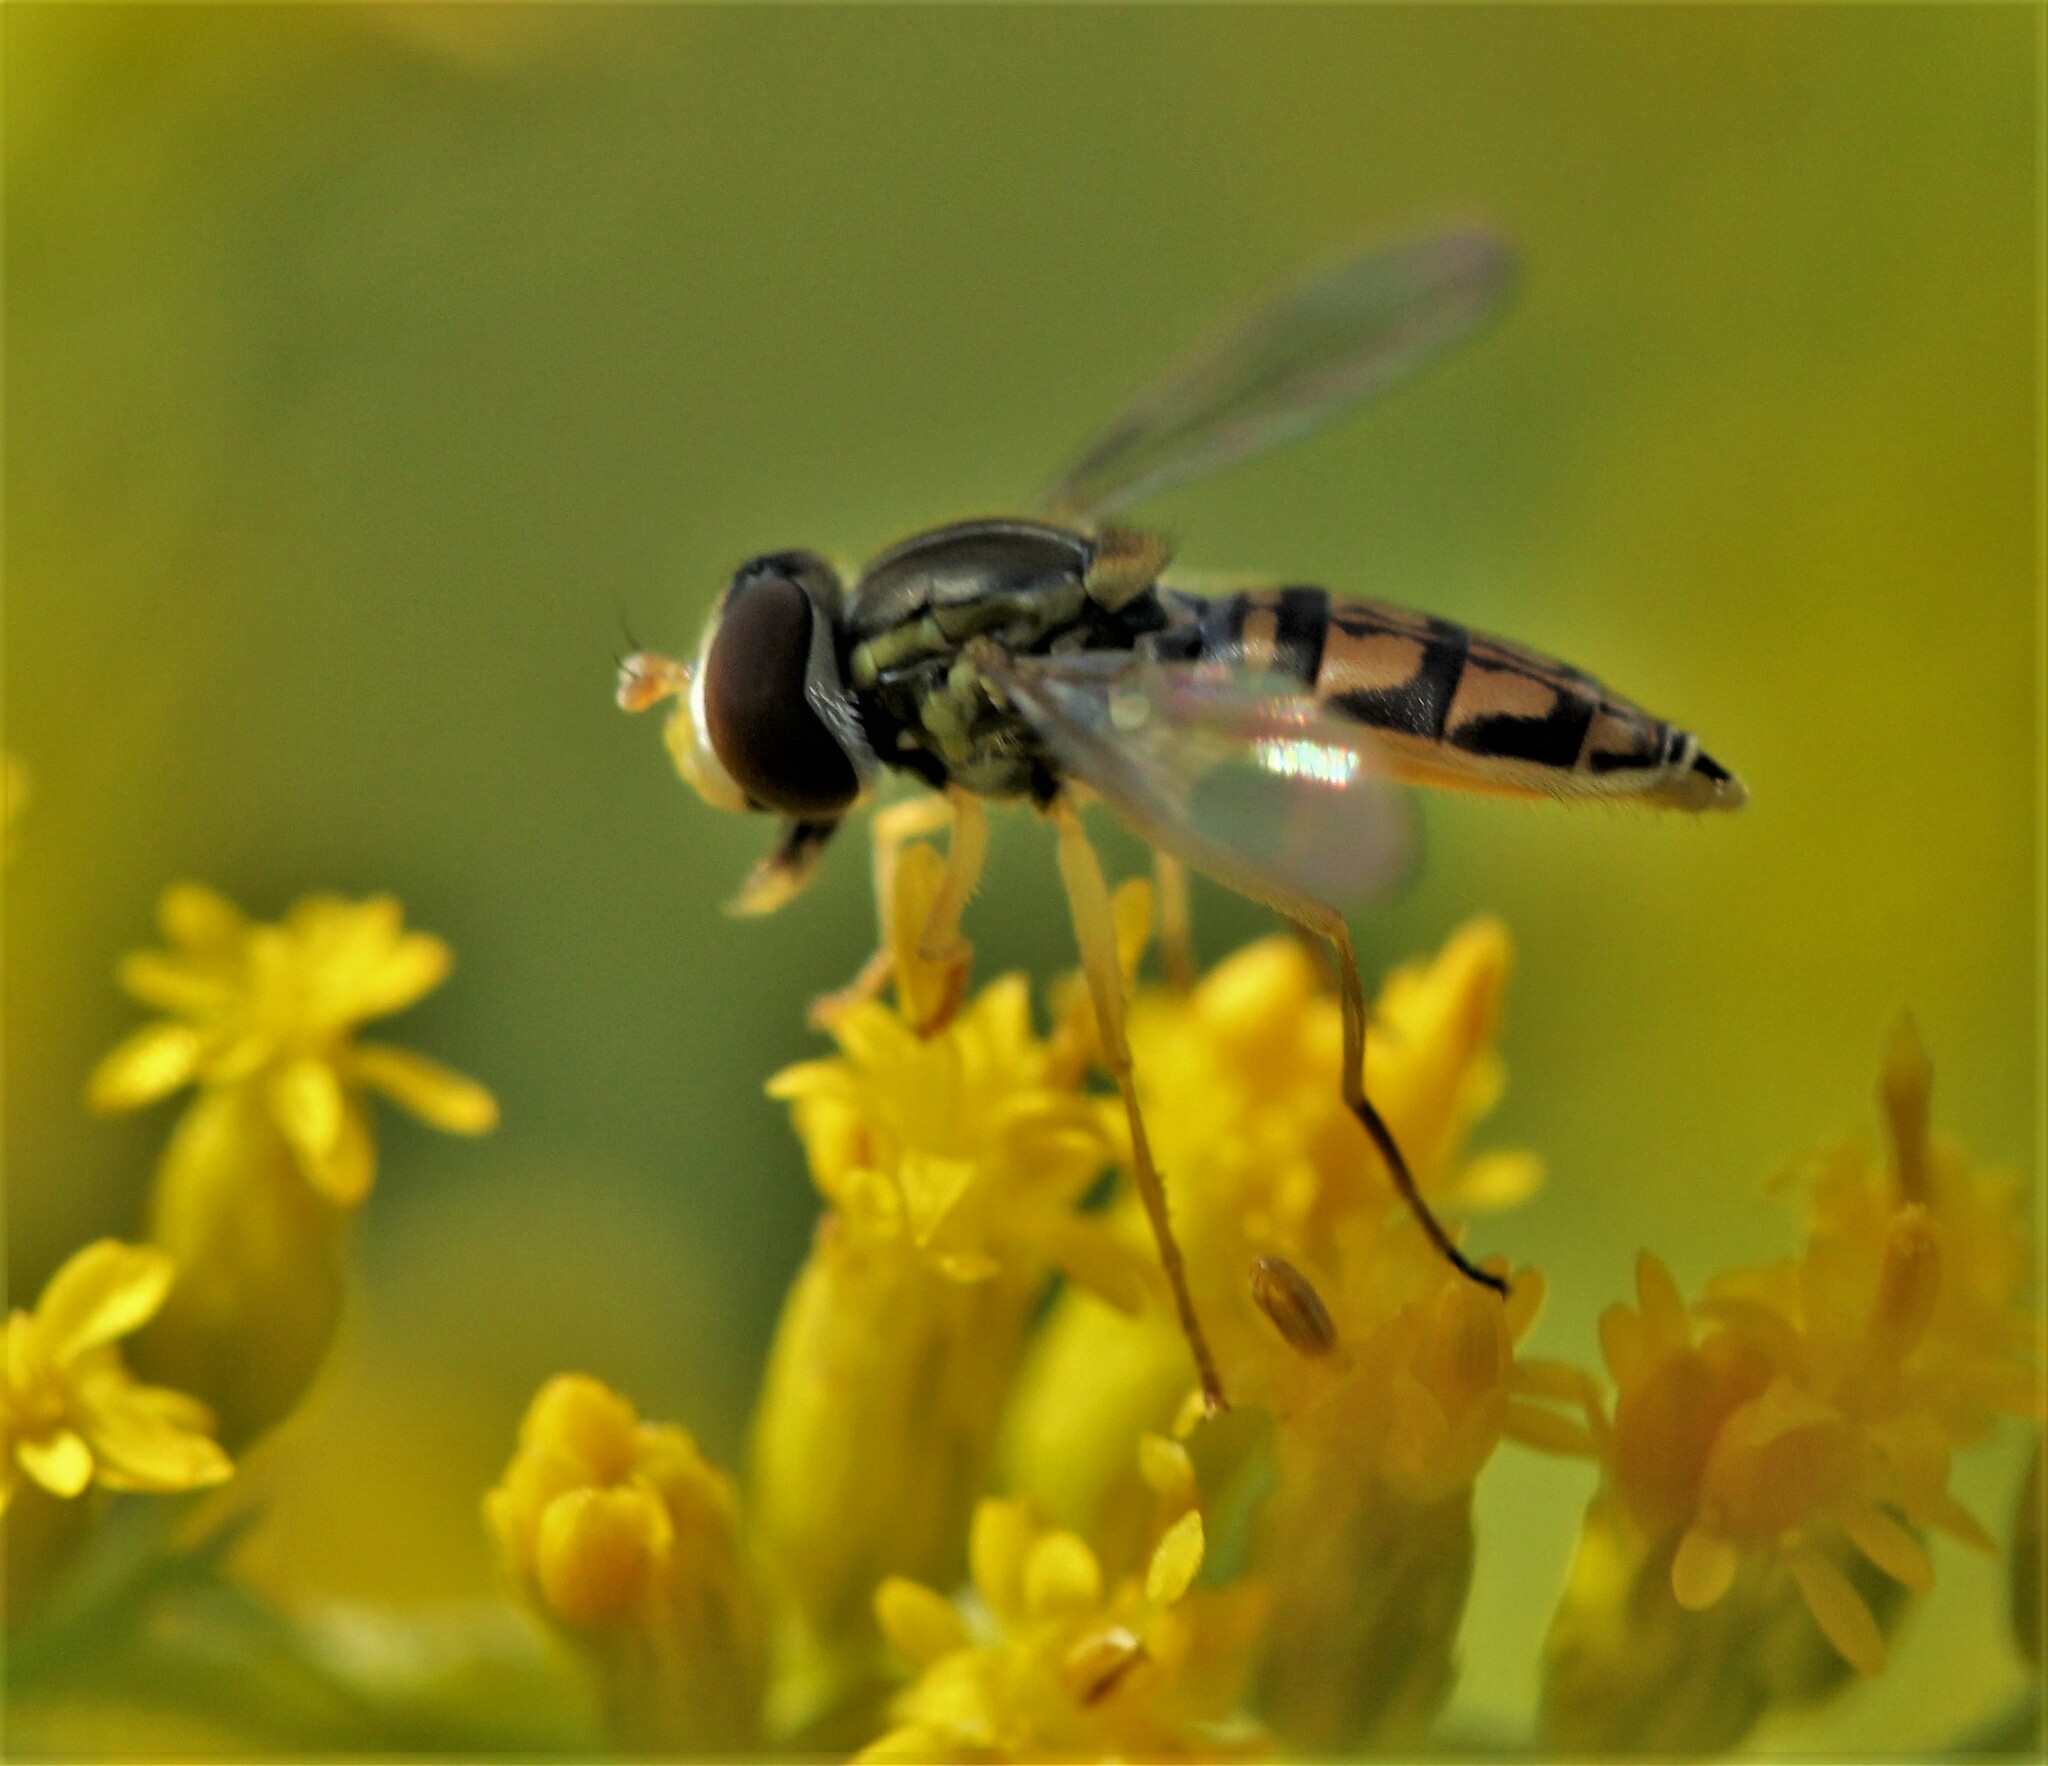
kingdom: Animalia
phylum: Arthropoda
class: Insecta
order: Diptera
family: Syrphidae
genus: Toxomerus
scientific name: Toxomerus marginatus
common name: Syrphid fly
